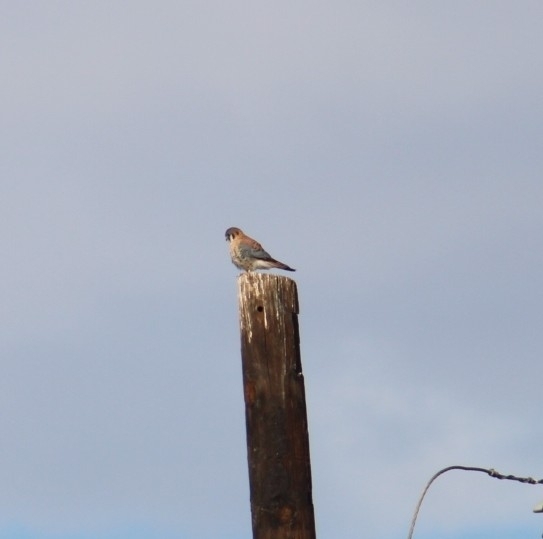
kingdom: Animalia
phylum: Chordata
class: Aves
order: Falconiformes
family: Falconidae
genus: Falco
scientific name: Falco sparverius
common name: American kestrel
